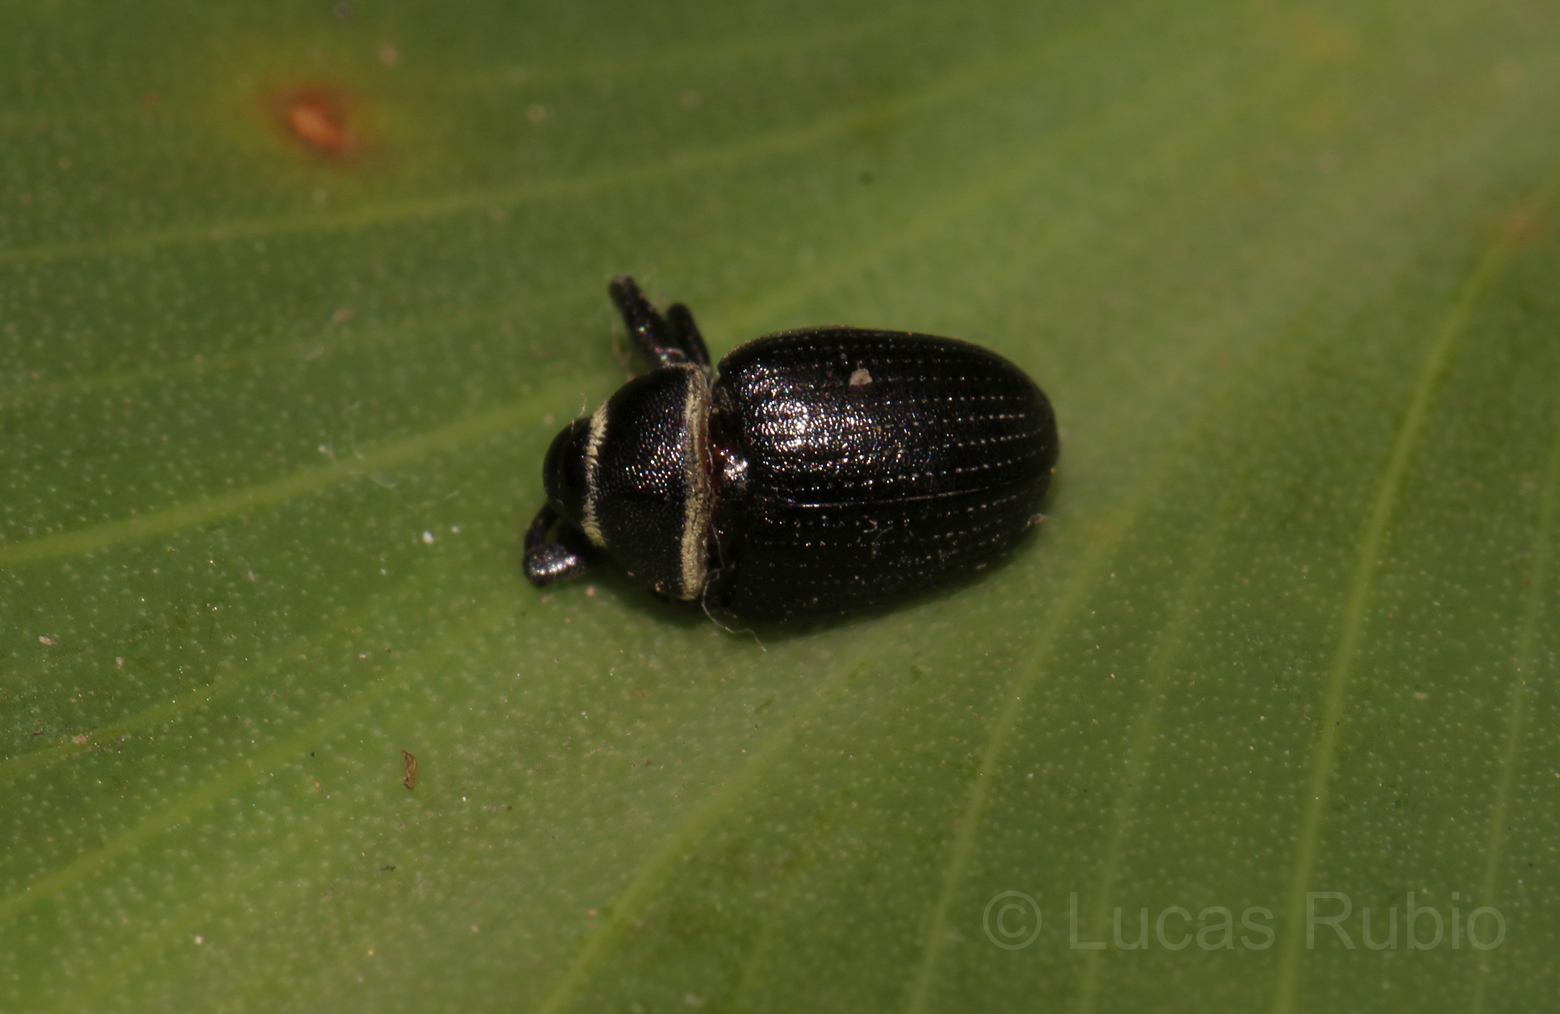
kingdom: Animalia
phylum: Arthropoda
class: Insecta
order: Coleoptera
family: Curculionidae
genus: Rhyssomatus
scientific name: Rhyssomatus marginatus
